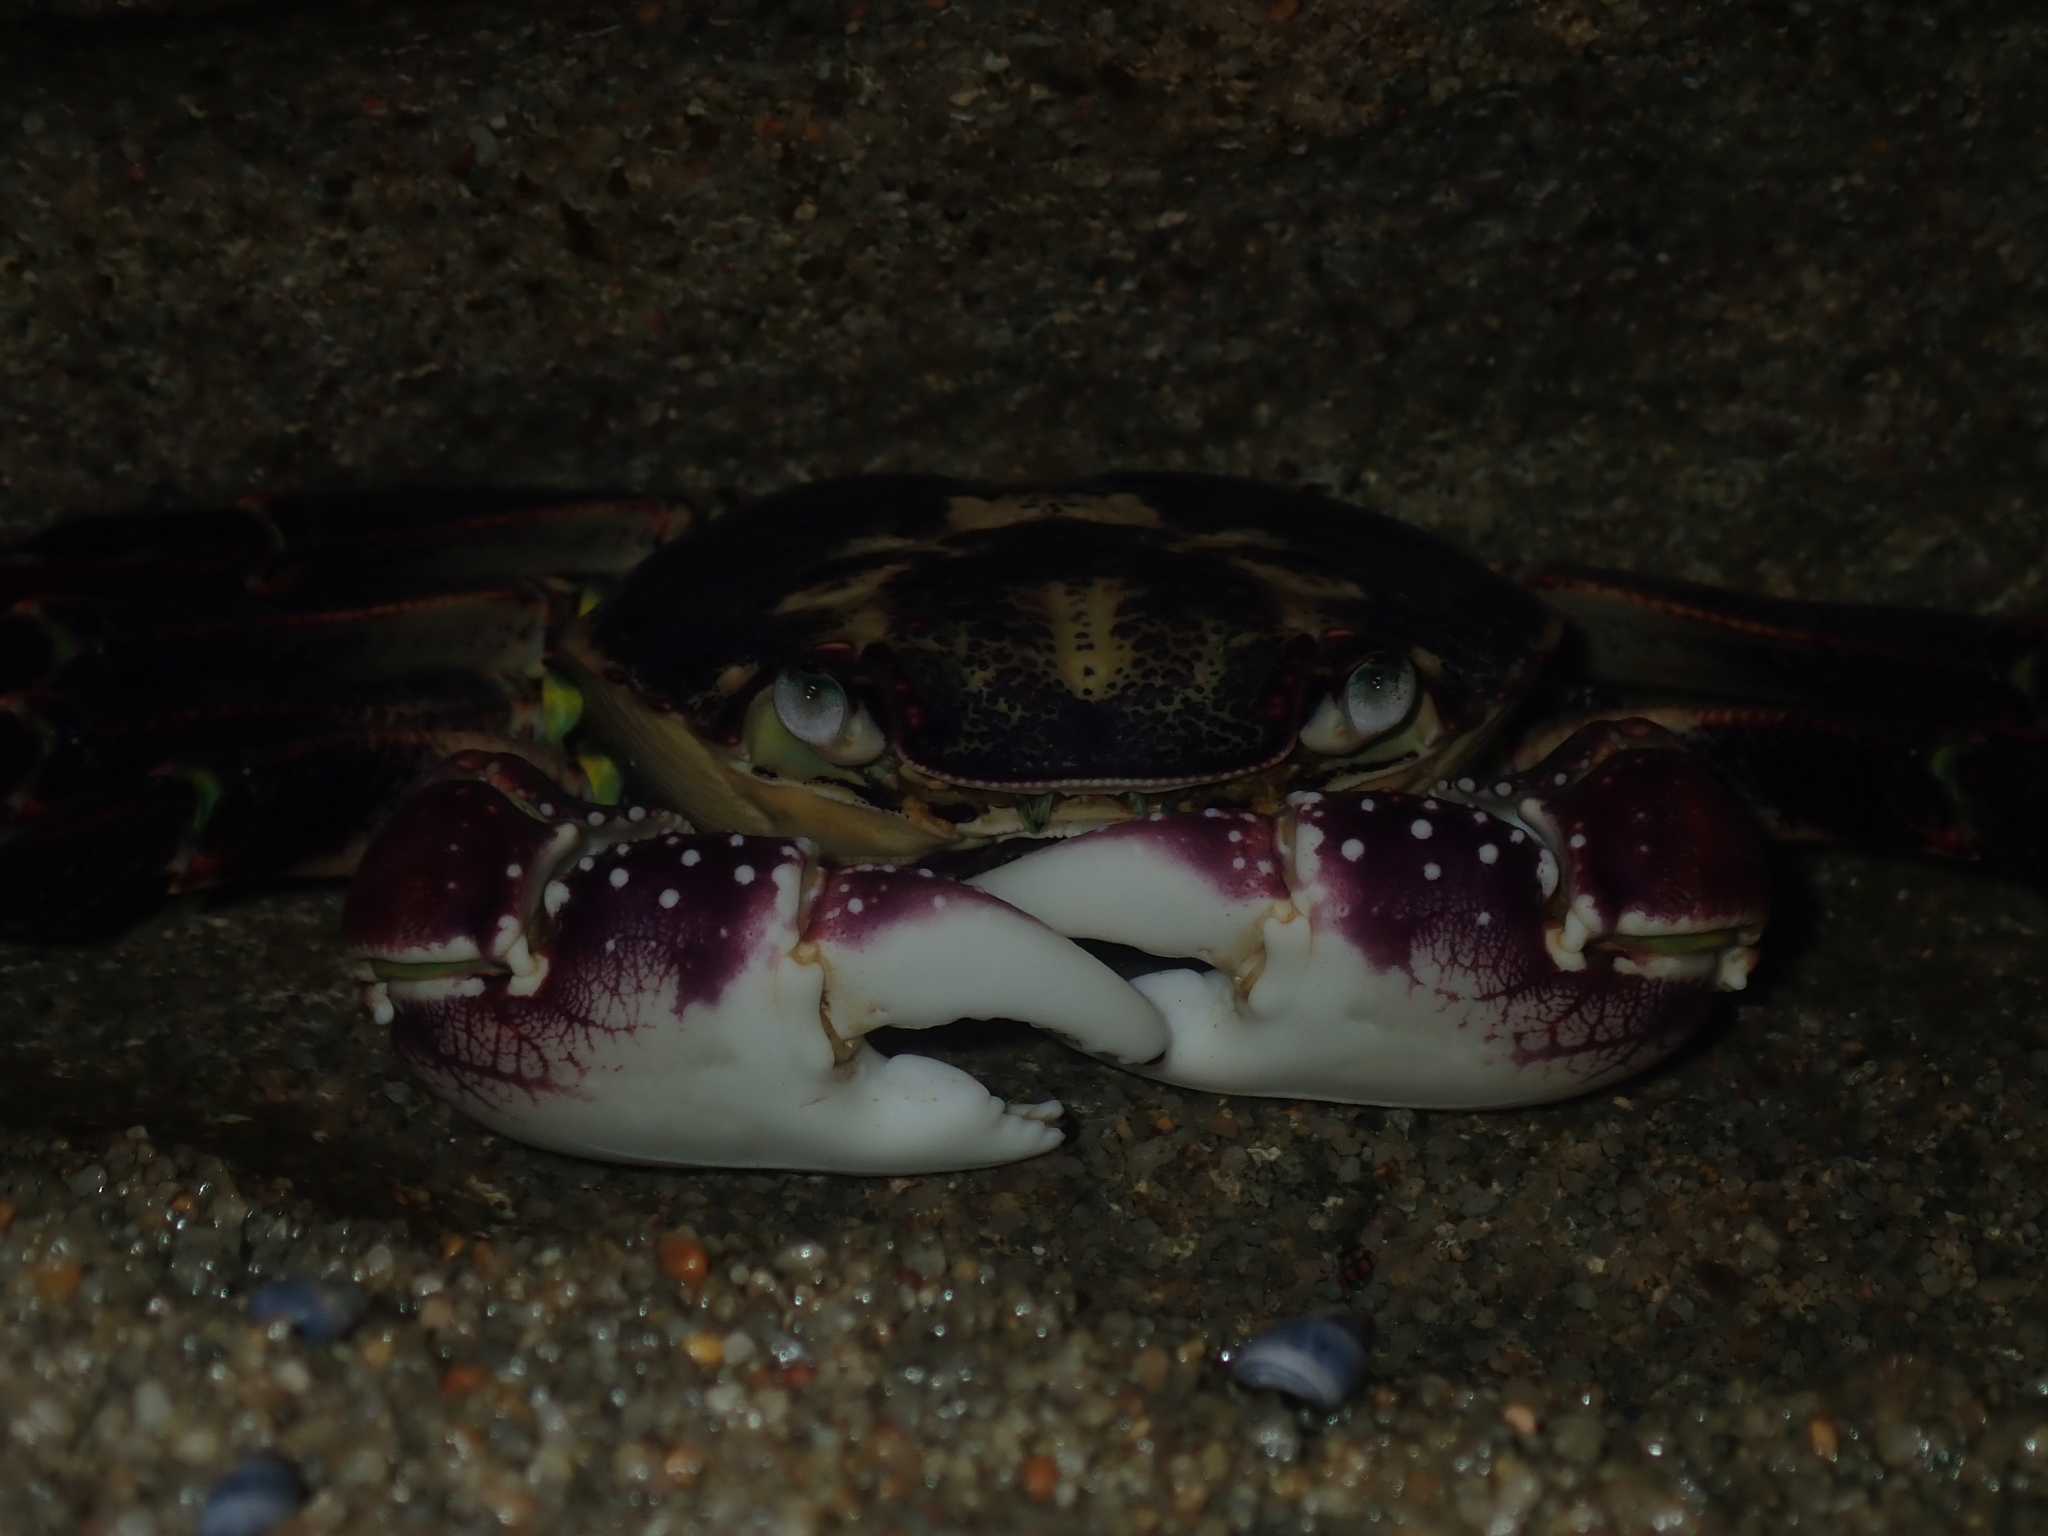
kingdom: Animalia
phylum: Arthropoda
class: Malacostraca
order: Decapoda
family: Grapsidae
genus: Leptograpsus
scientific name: Leptograpsus variegatus
